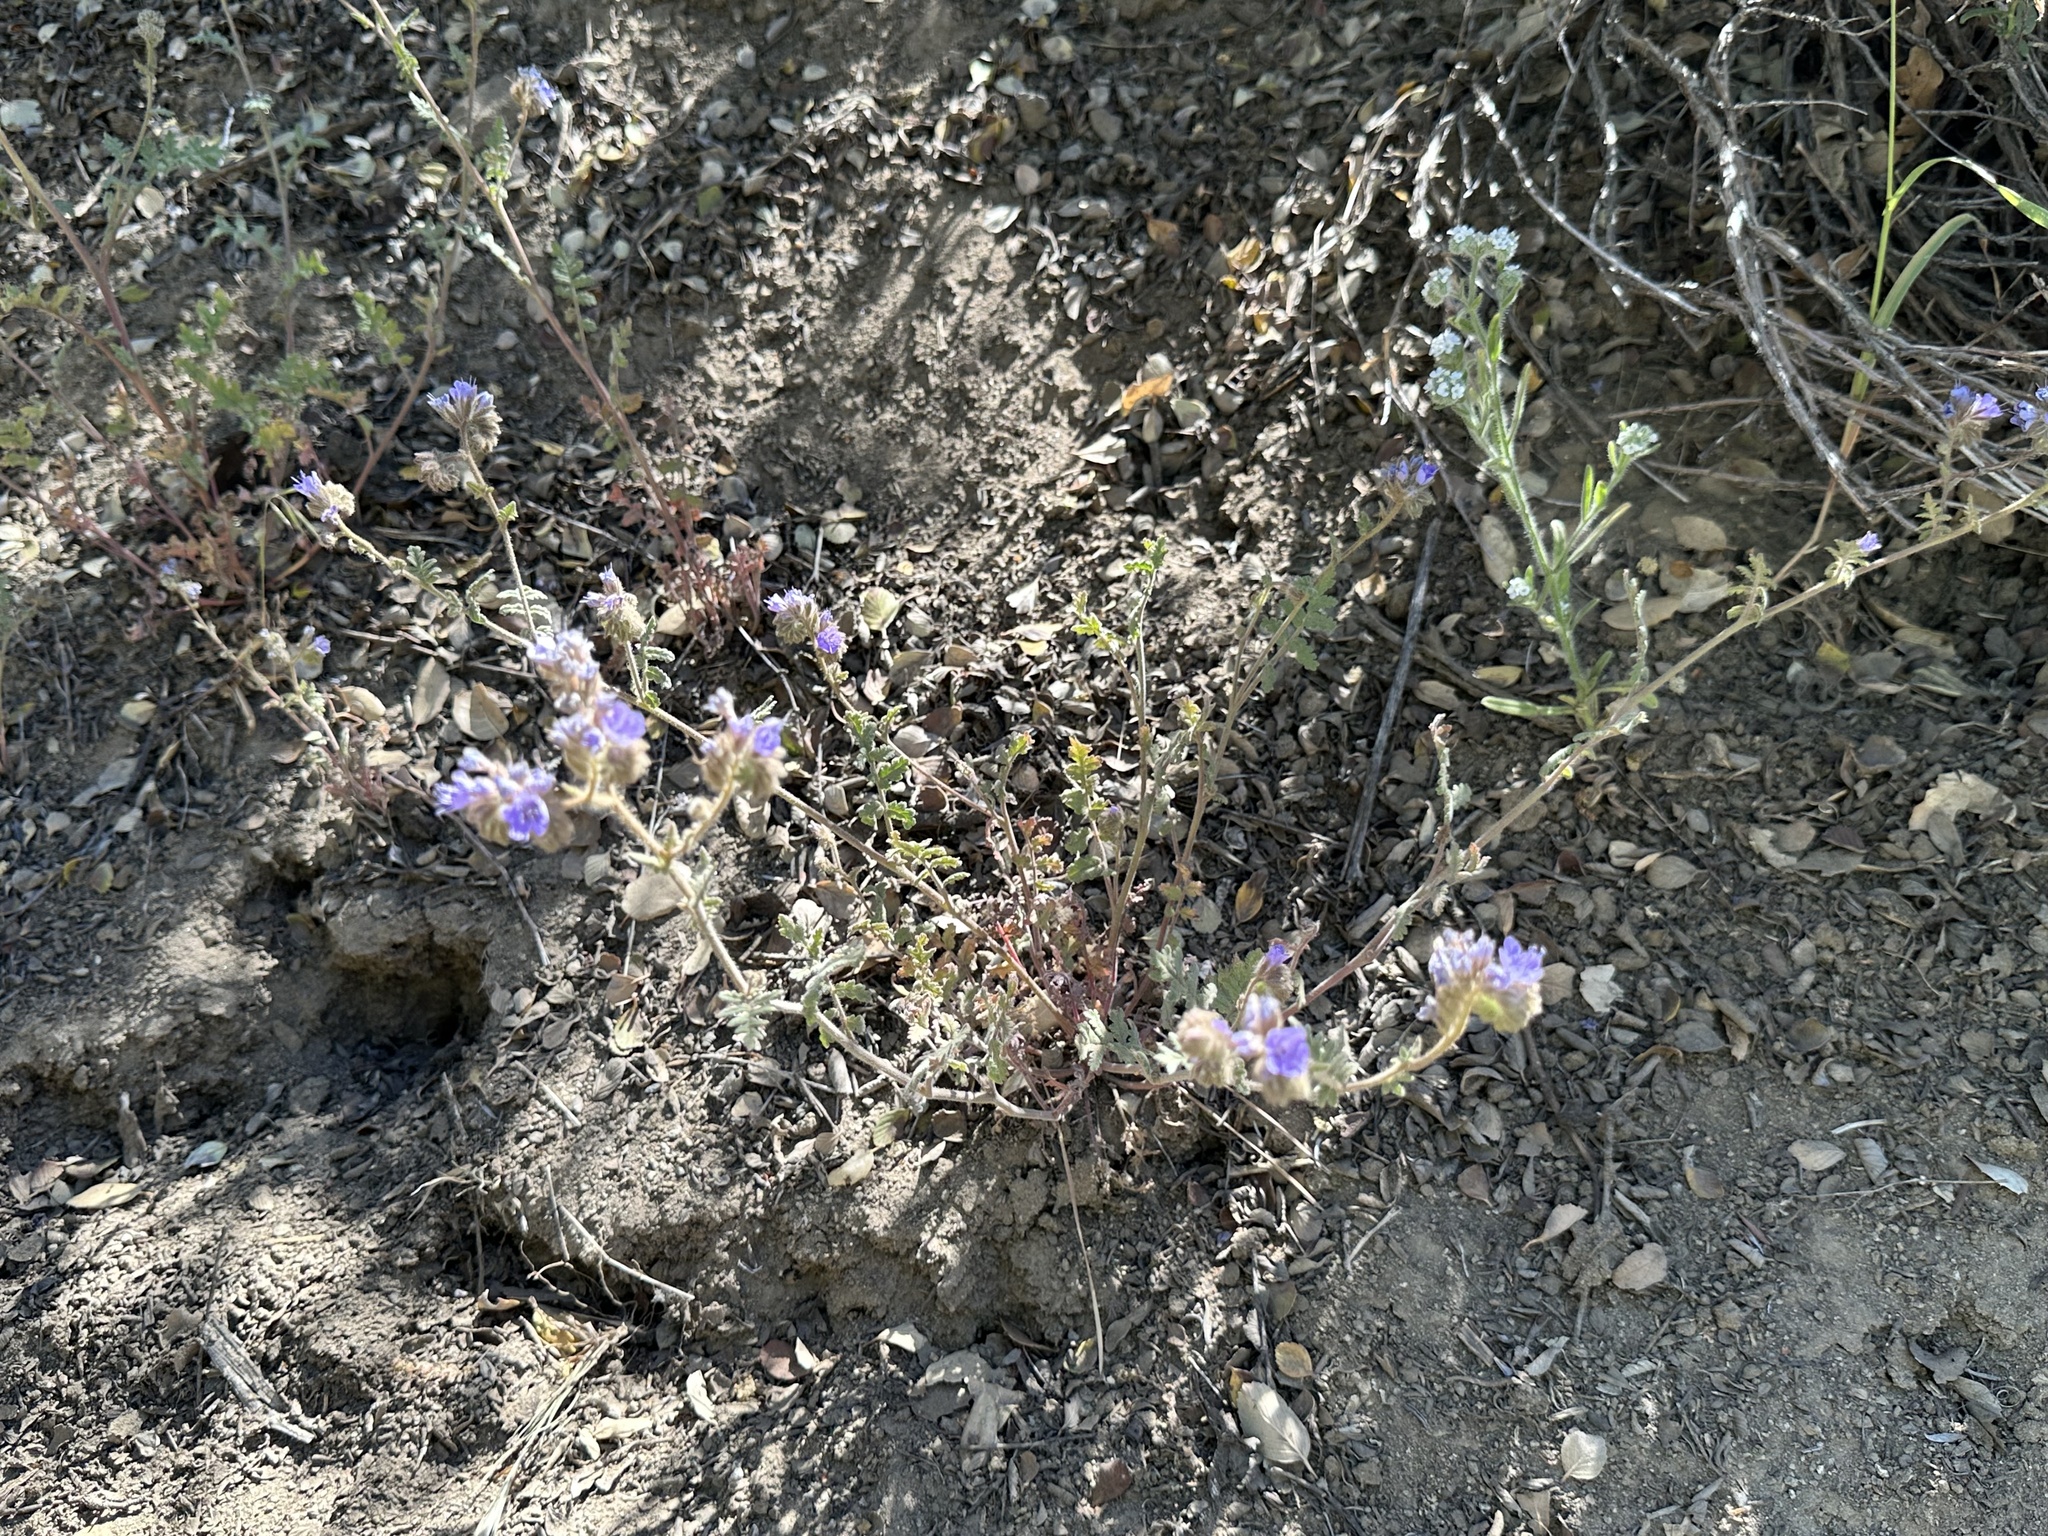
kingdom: Plantae
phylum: Tracheophyta
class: Magnoliopsida
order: Boraginales
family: Hydrophyllaceae
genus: Phacelia
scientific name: Phacelia distans
